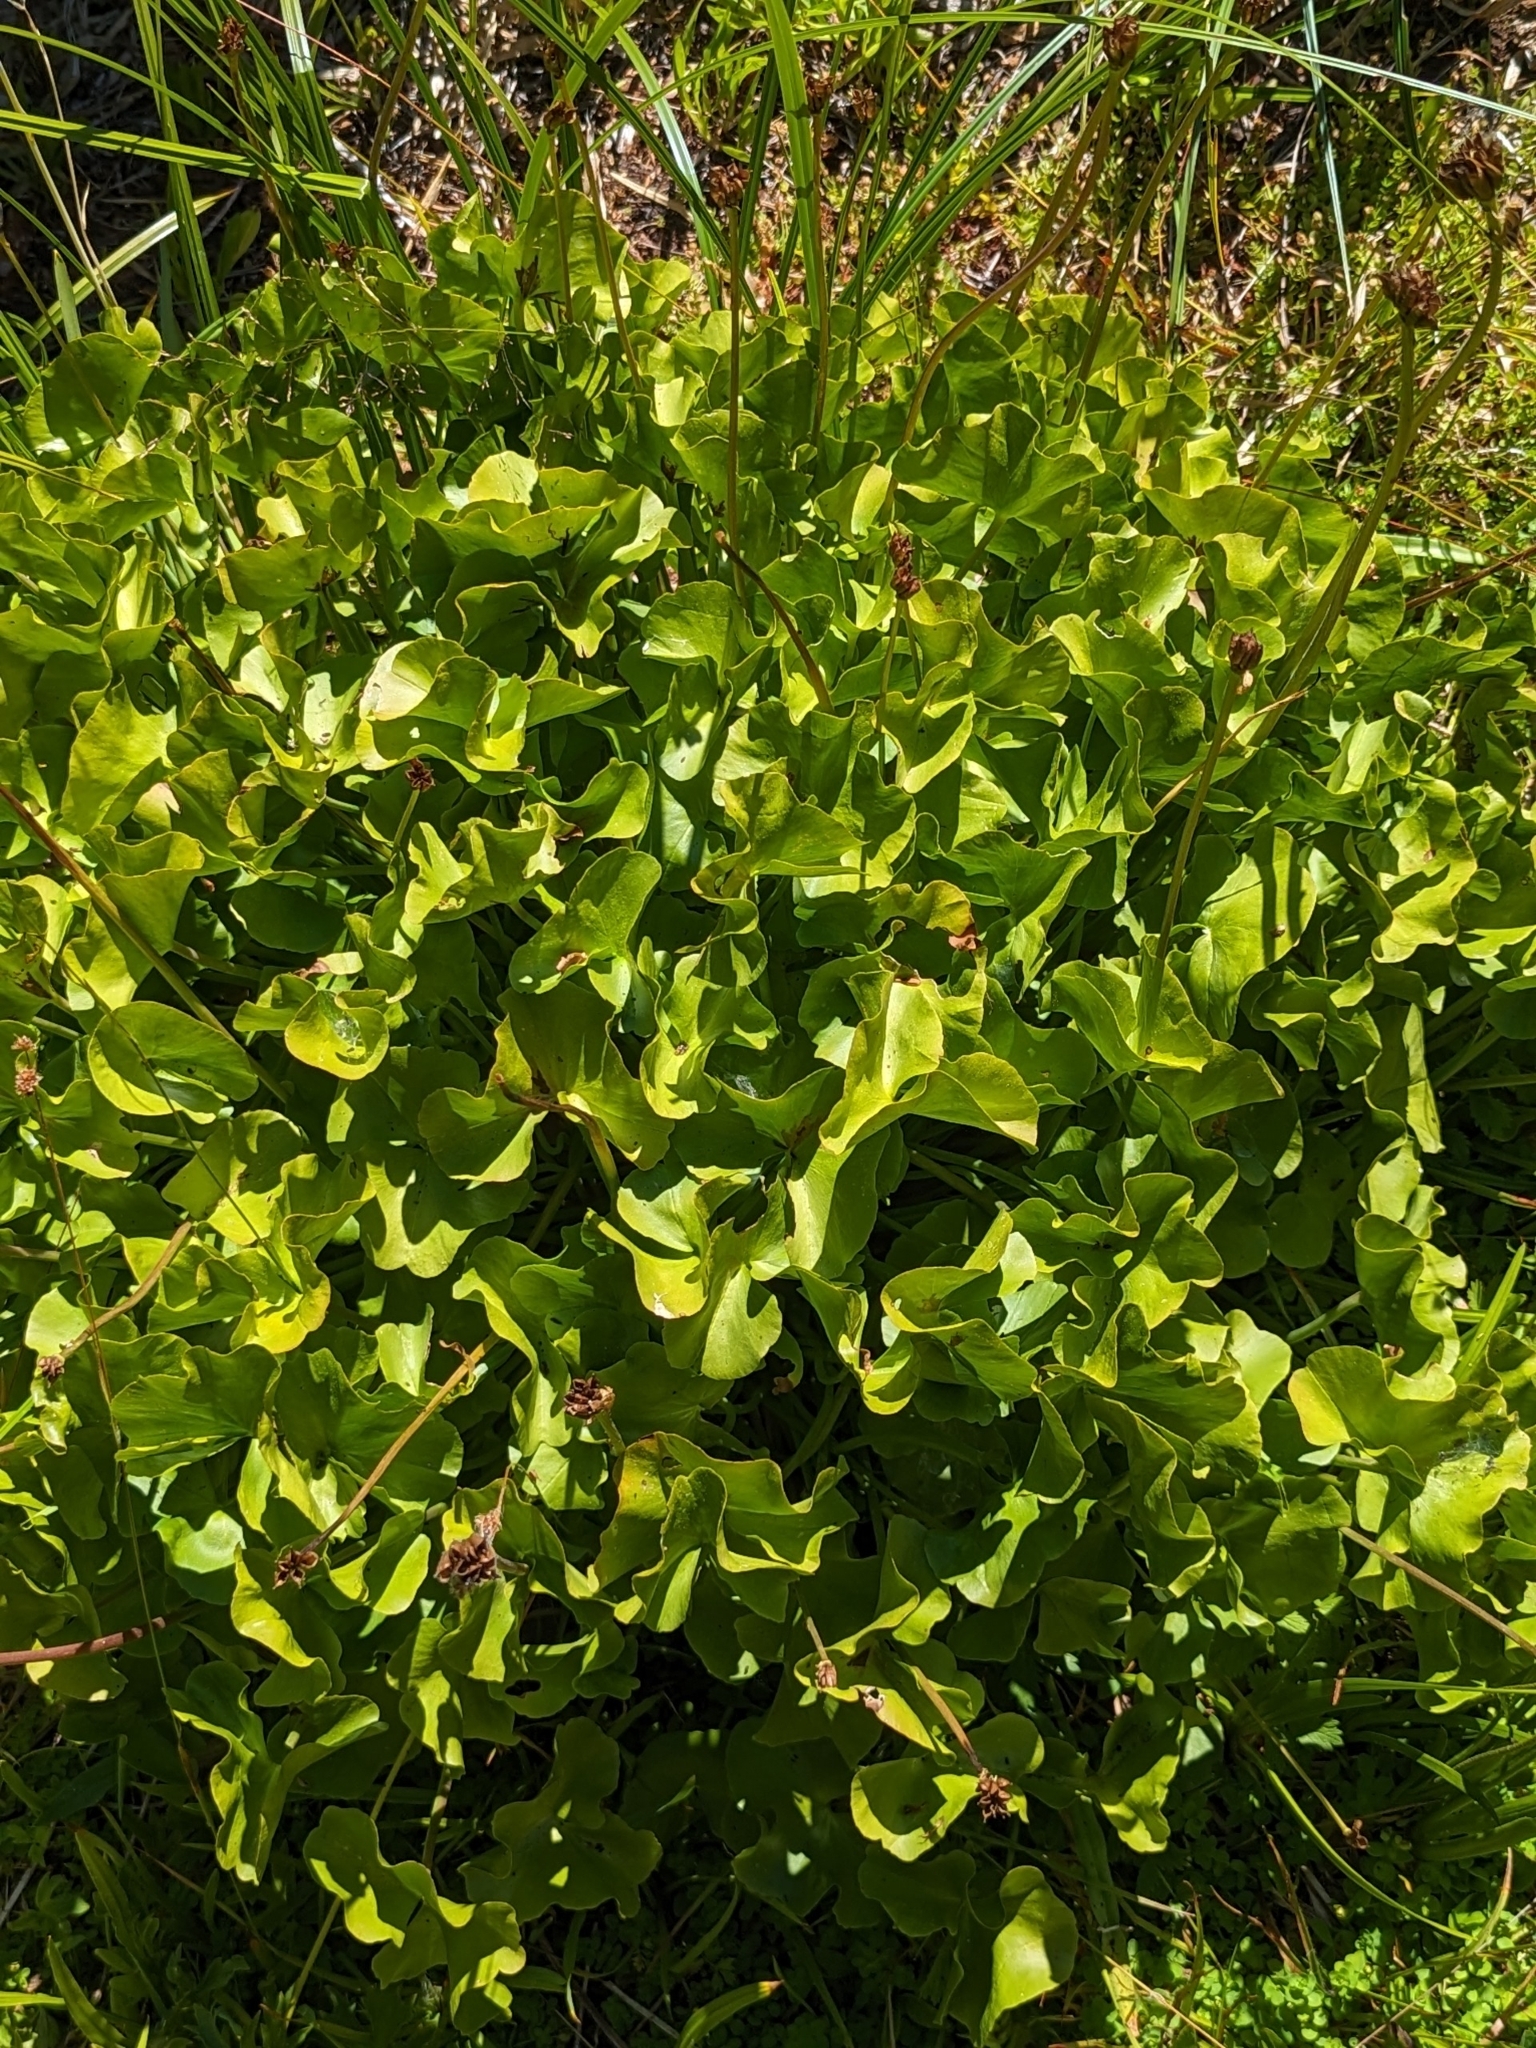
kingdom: Plantae
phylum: Tracheophyta
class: Magnoliopsida
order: Ranunculales
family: Ranunculaceae
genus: Caltha
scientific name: Caltha leptosepala
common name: Elkslip
